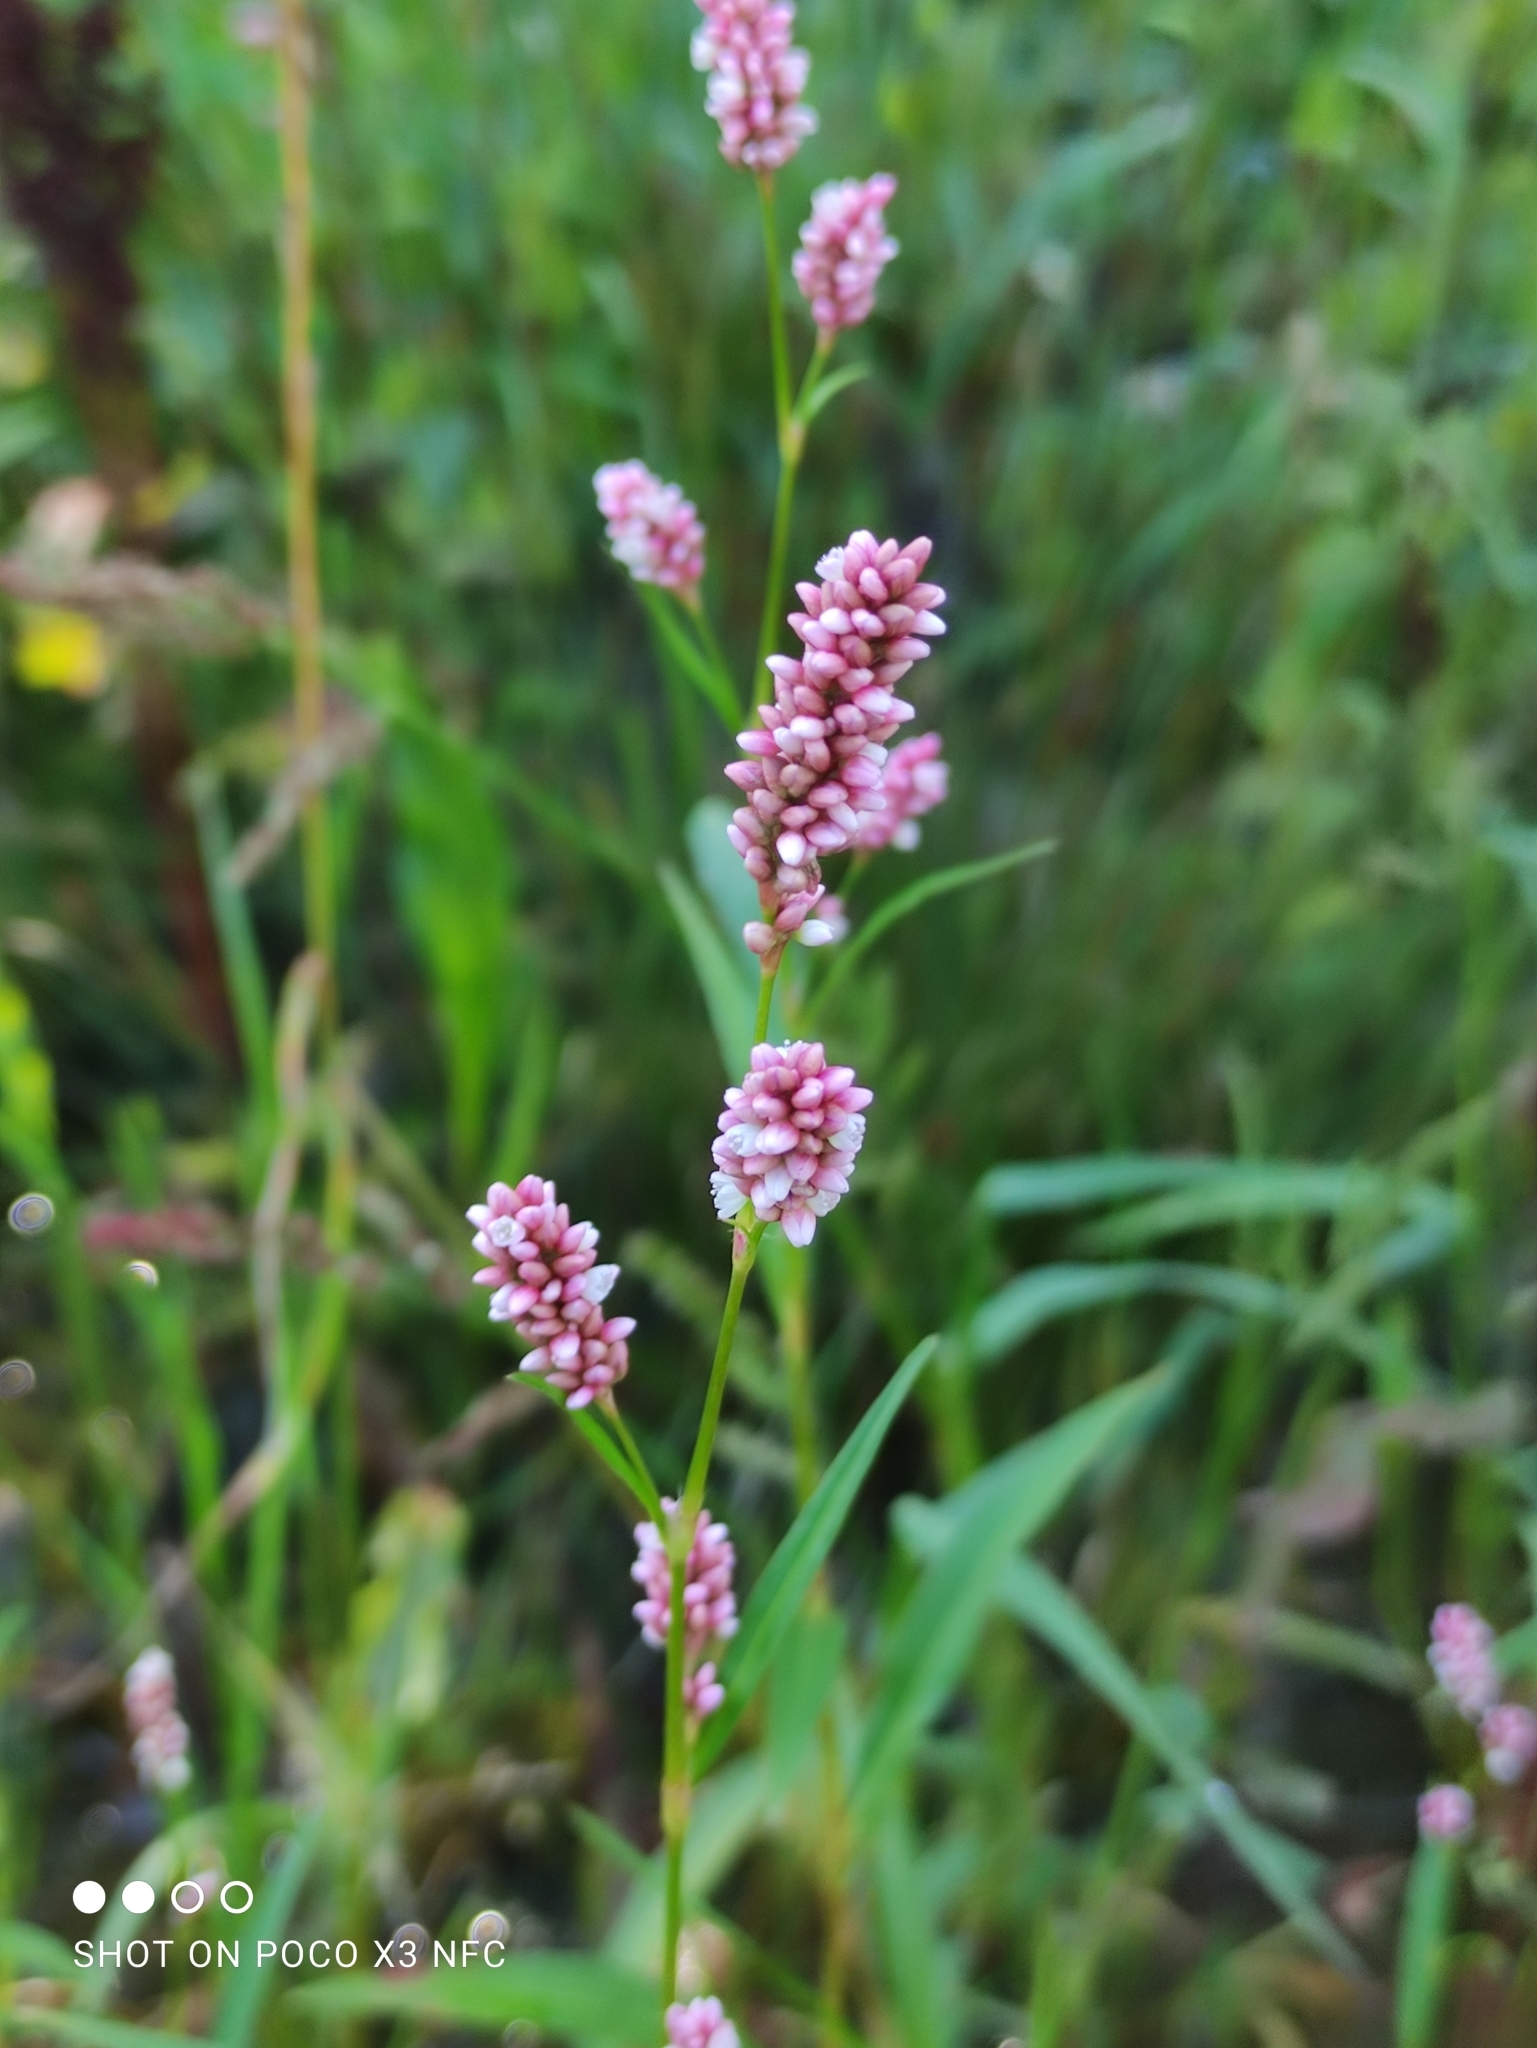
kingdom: Plantae
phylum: Tracheophyta
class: Magnoliopsida
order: Caryophyllales
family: Polygonaceae
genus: Persicaria
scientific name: Persicaria maculosa
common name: Redshank
